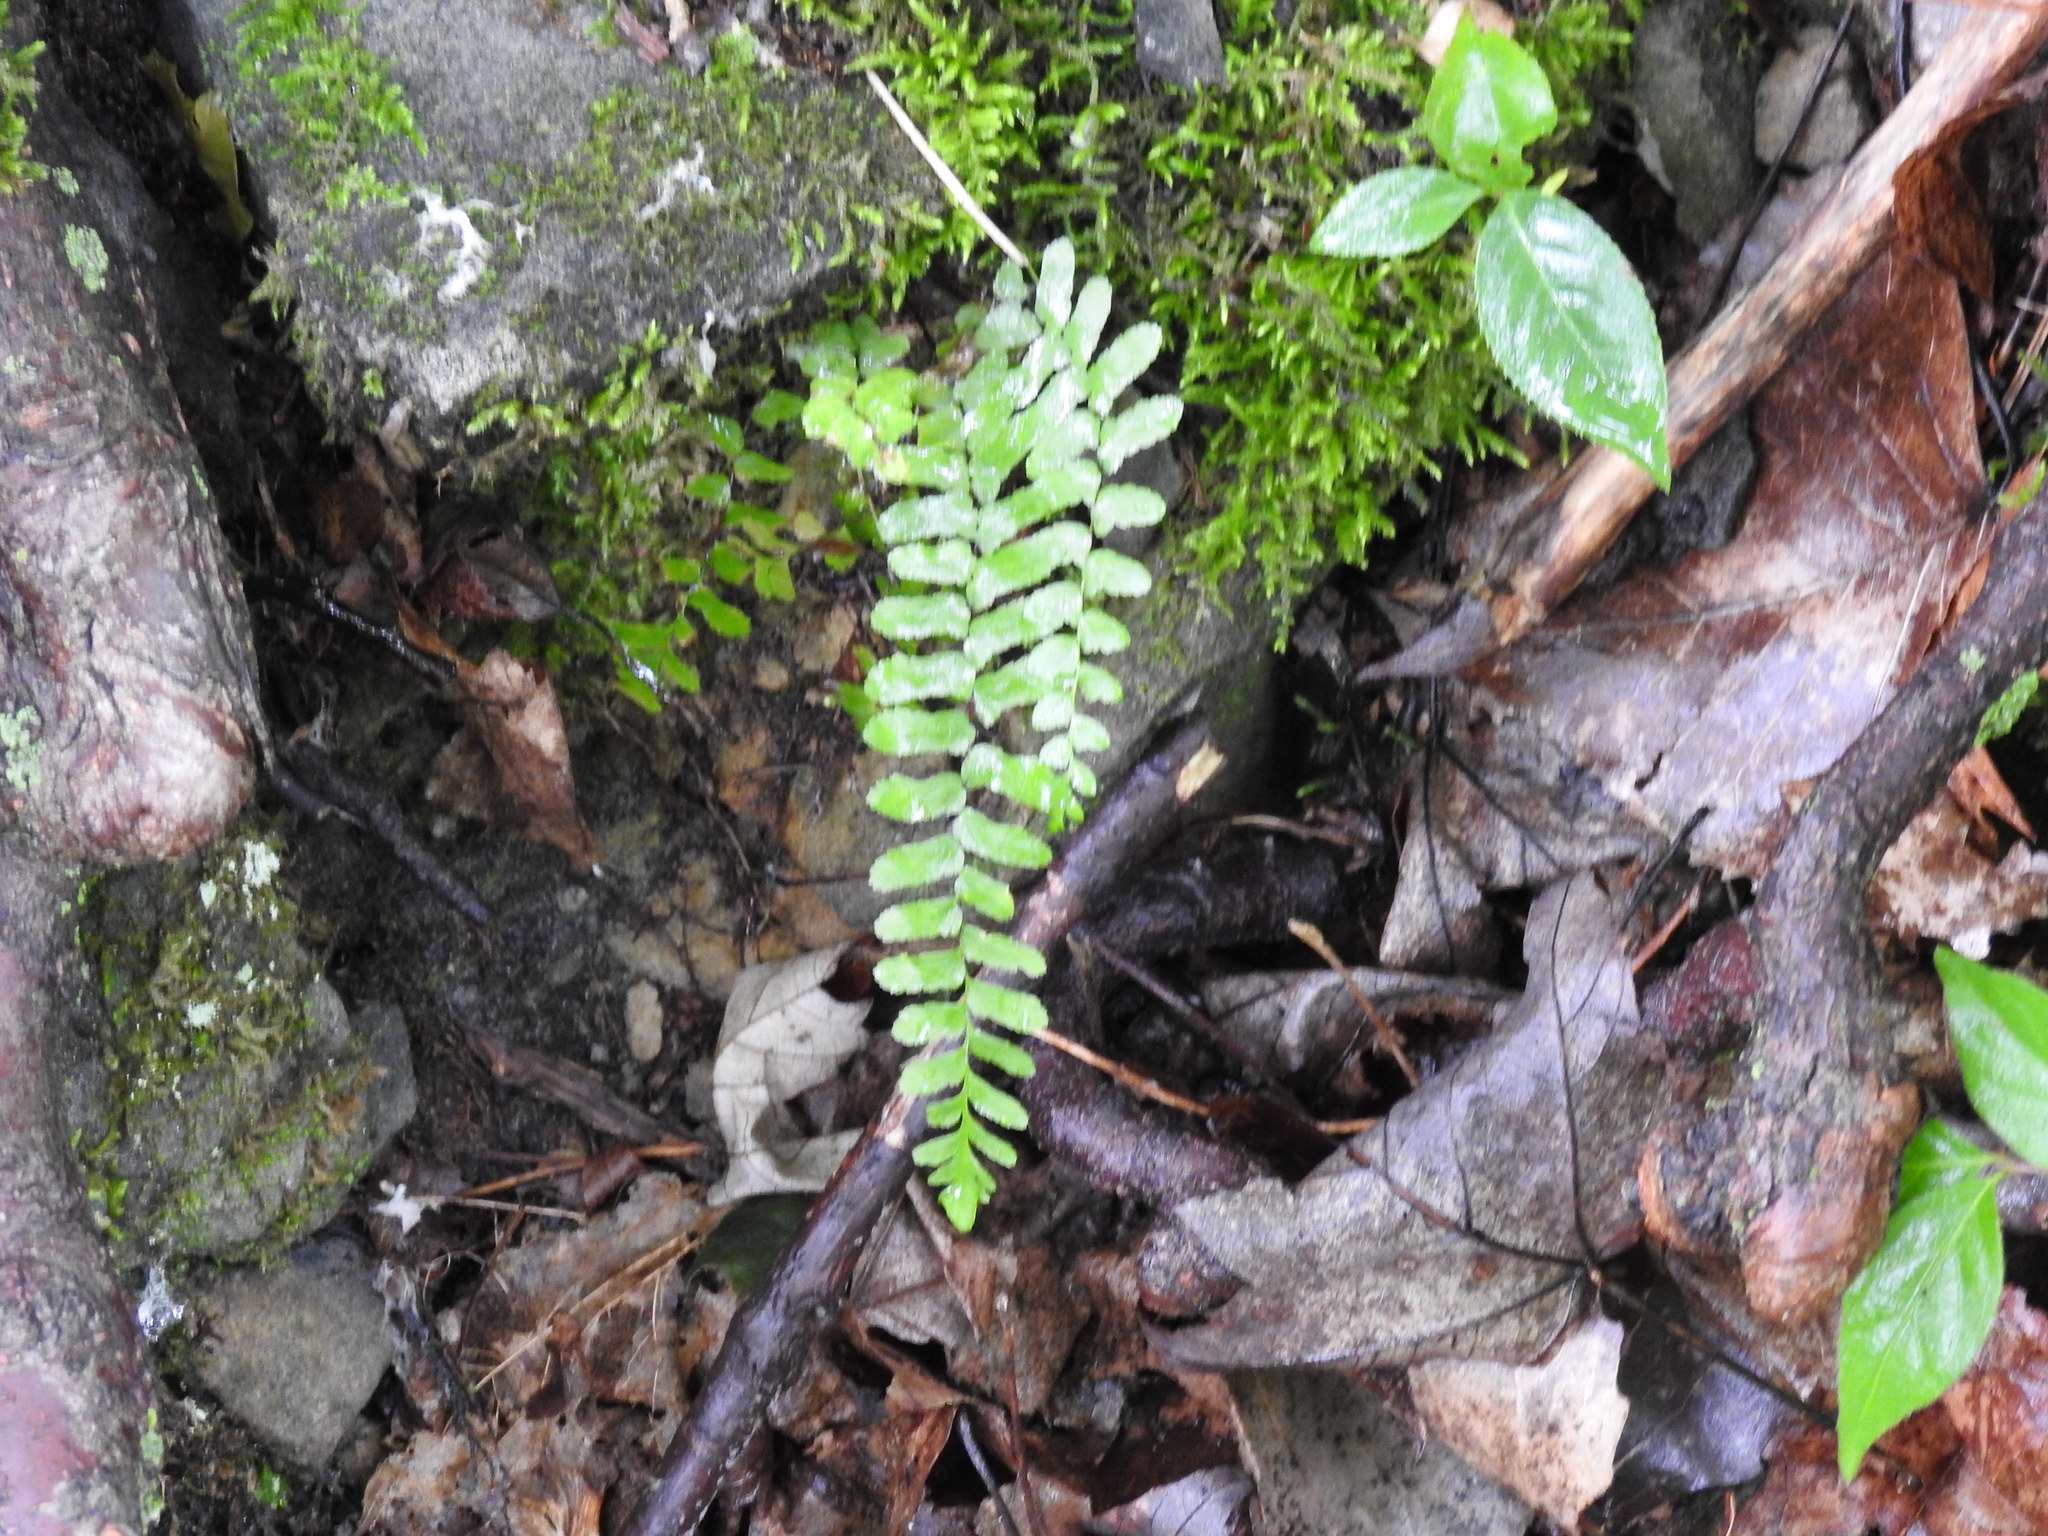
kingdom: Plantae
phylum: Tracheophyta
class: Polypodiopsida
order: Polypodiales
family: Aspleniaceae
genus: Asplenium
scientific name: Asplenium platyneuron
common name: Ebony spleenwort
